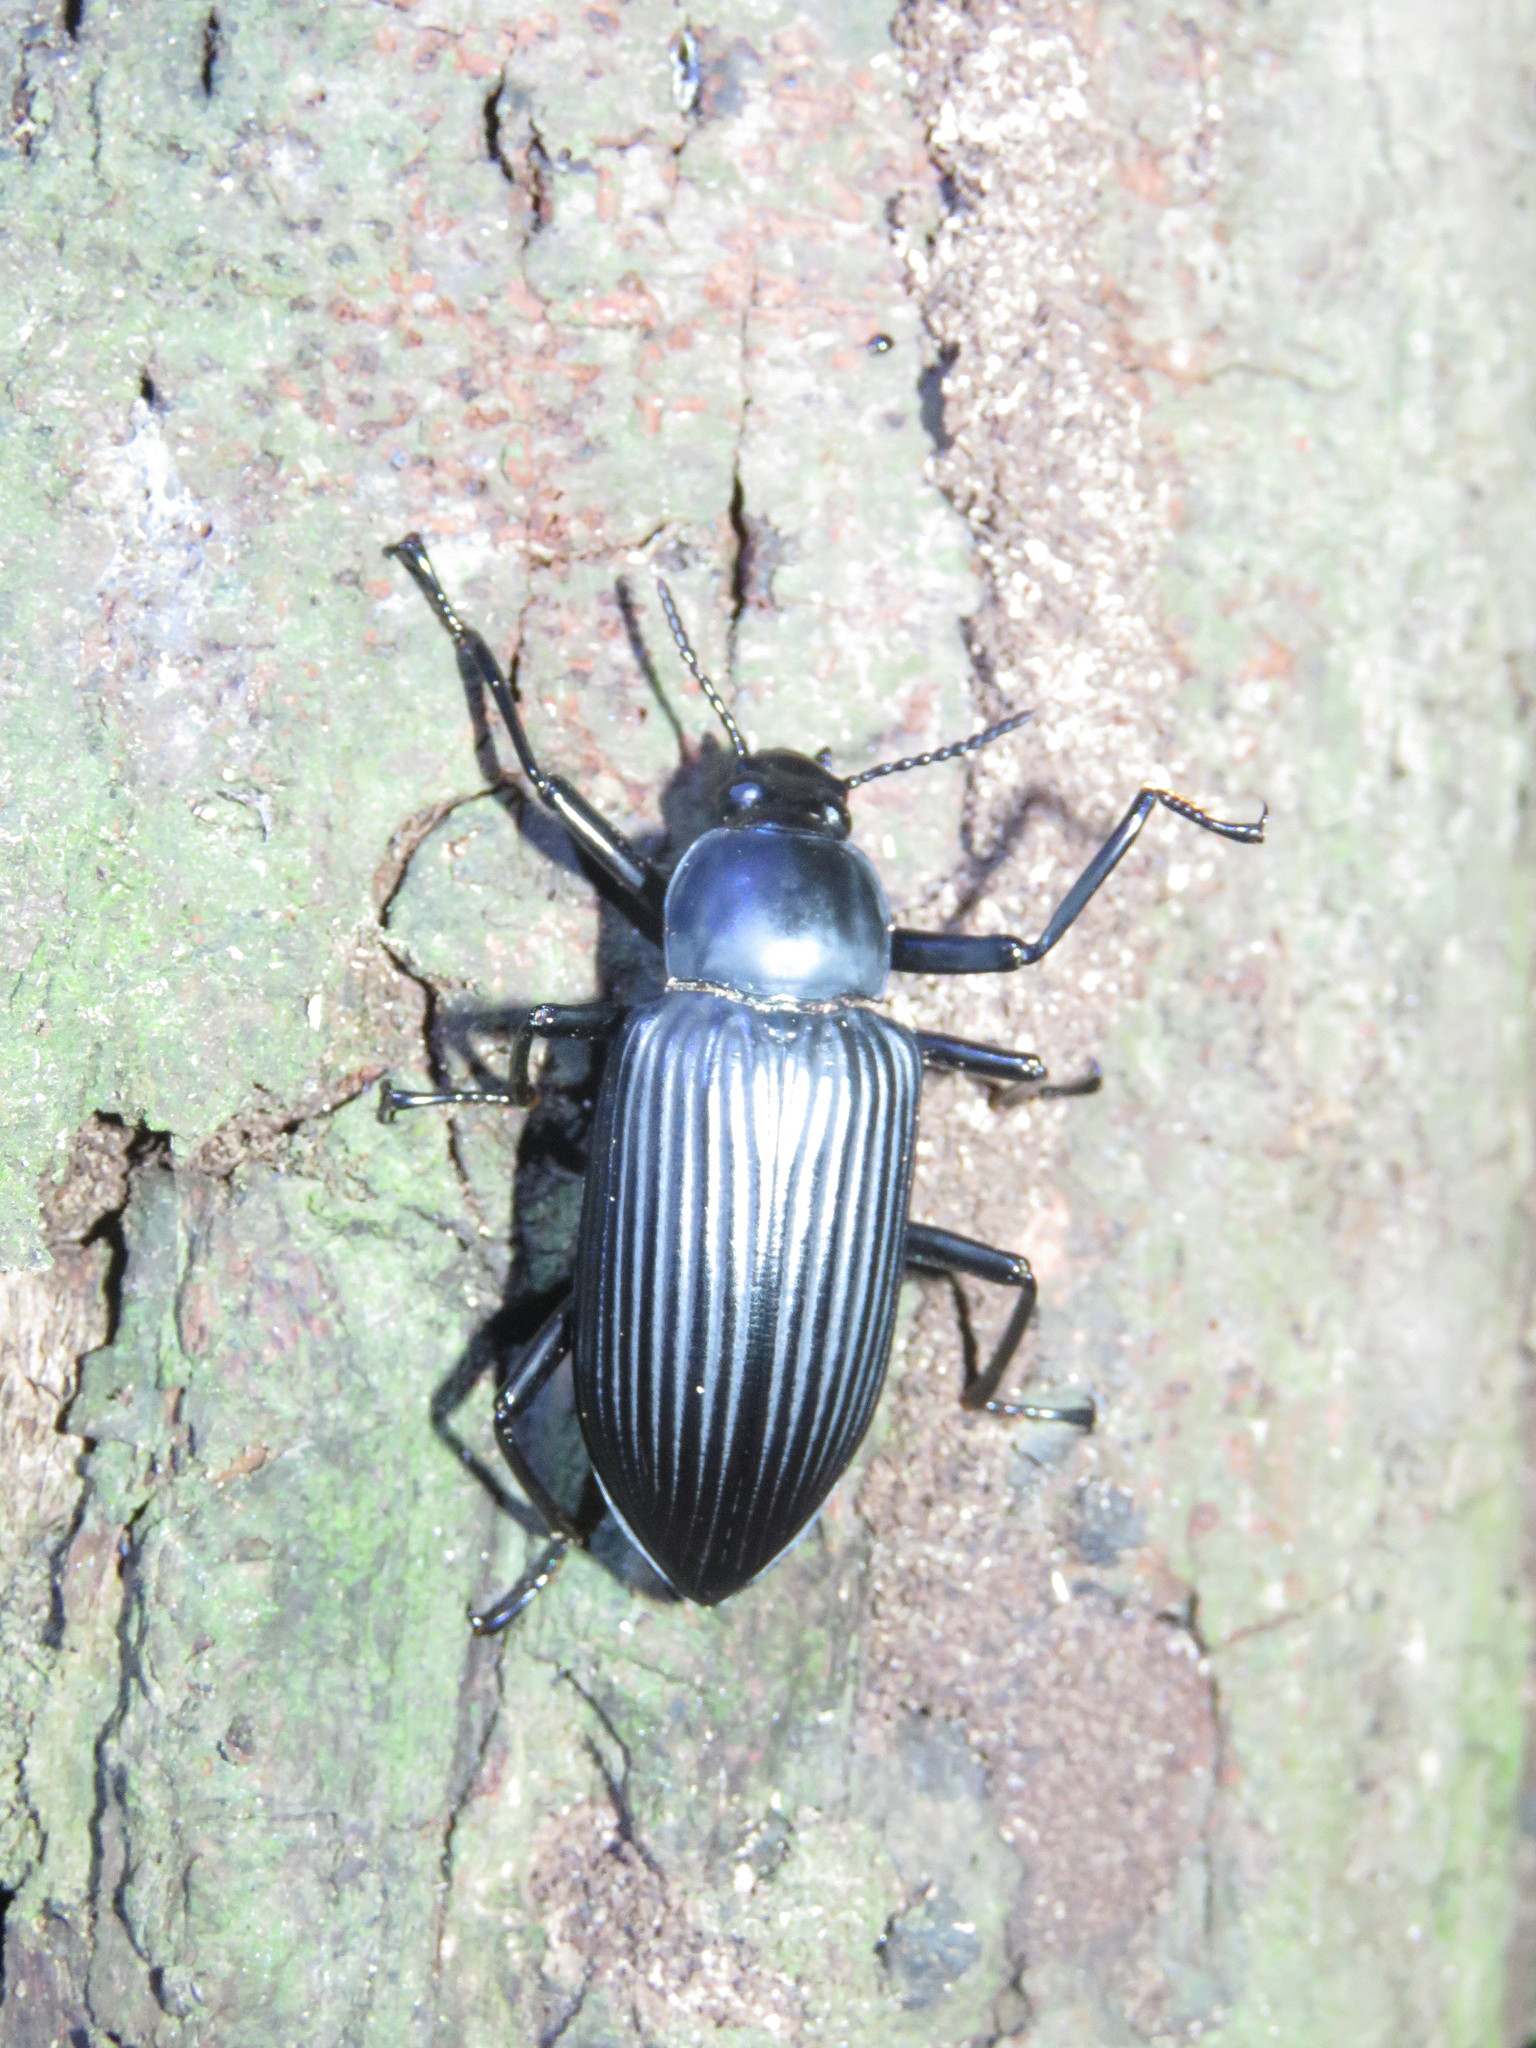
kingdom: Animalia
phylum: Arthropoda
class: Insecta
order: Coleoptera
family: Tenebrionidae
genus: Mylaris
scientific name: Mylaris gigas
